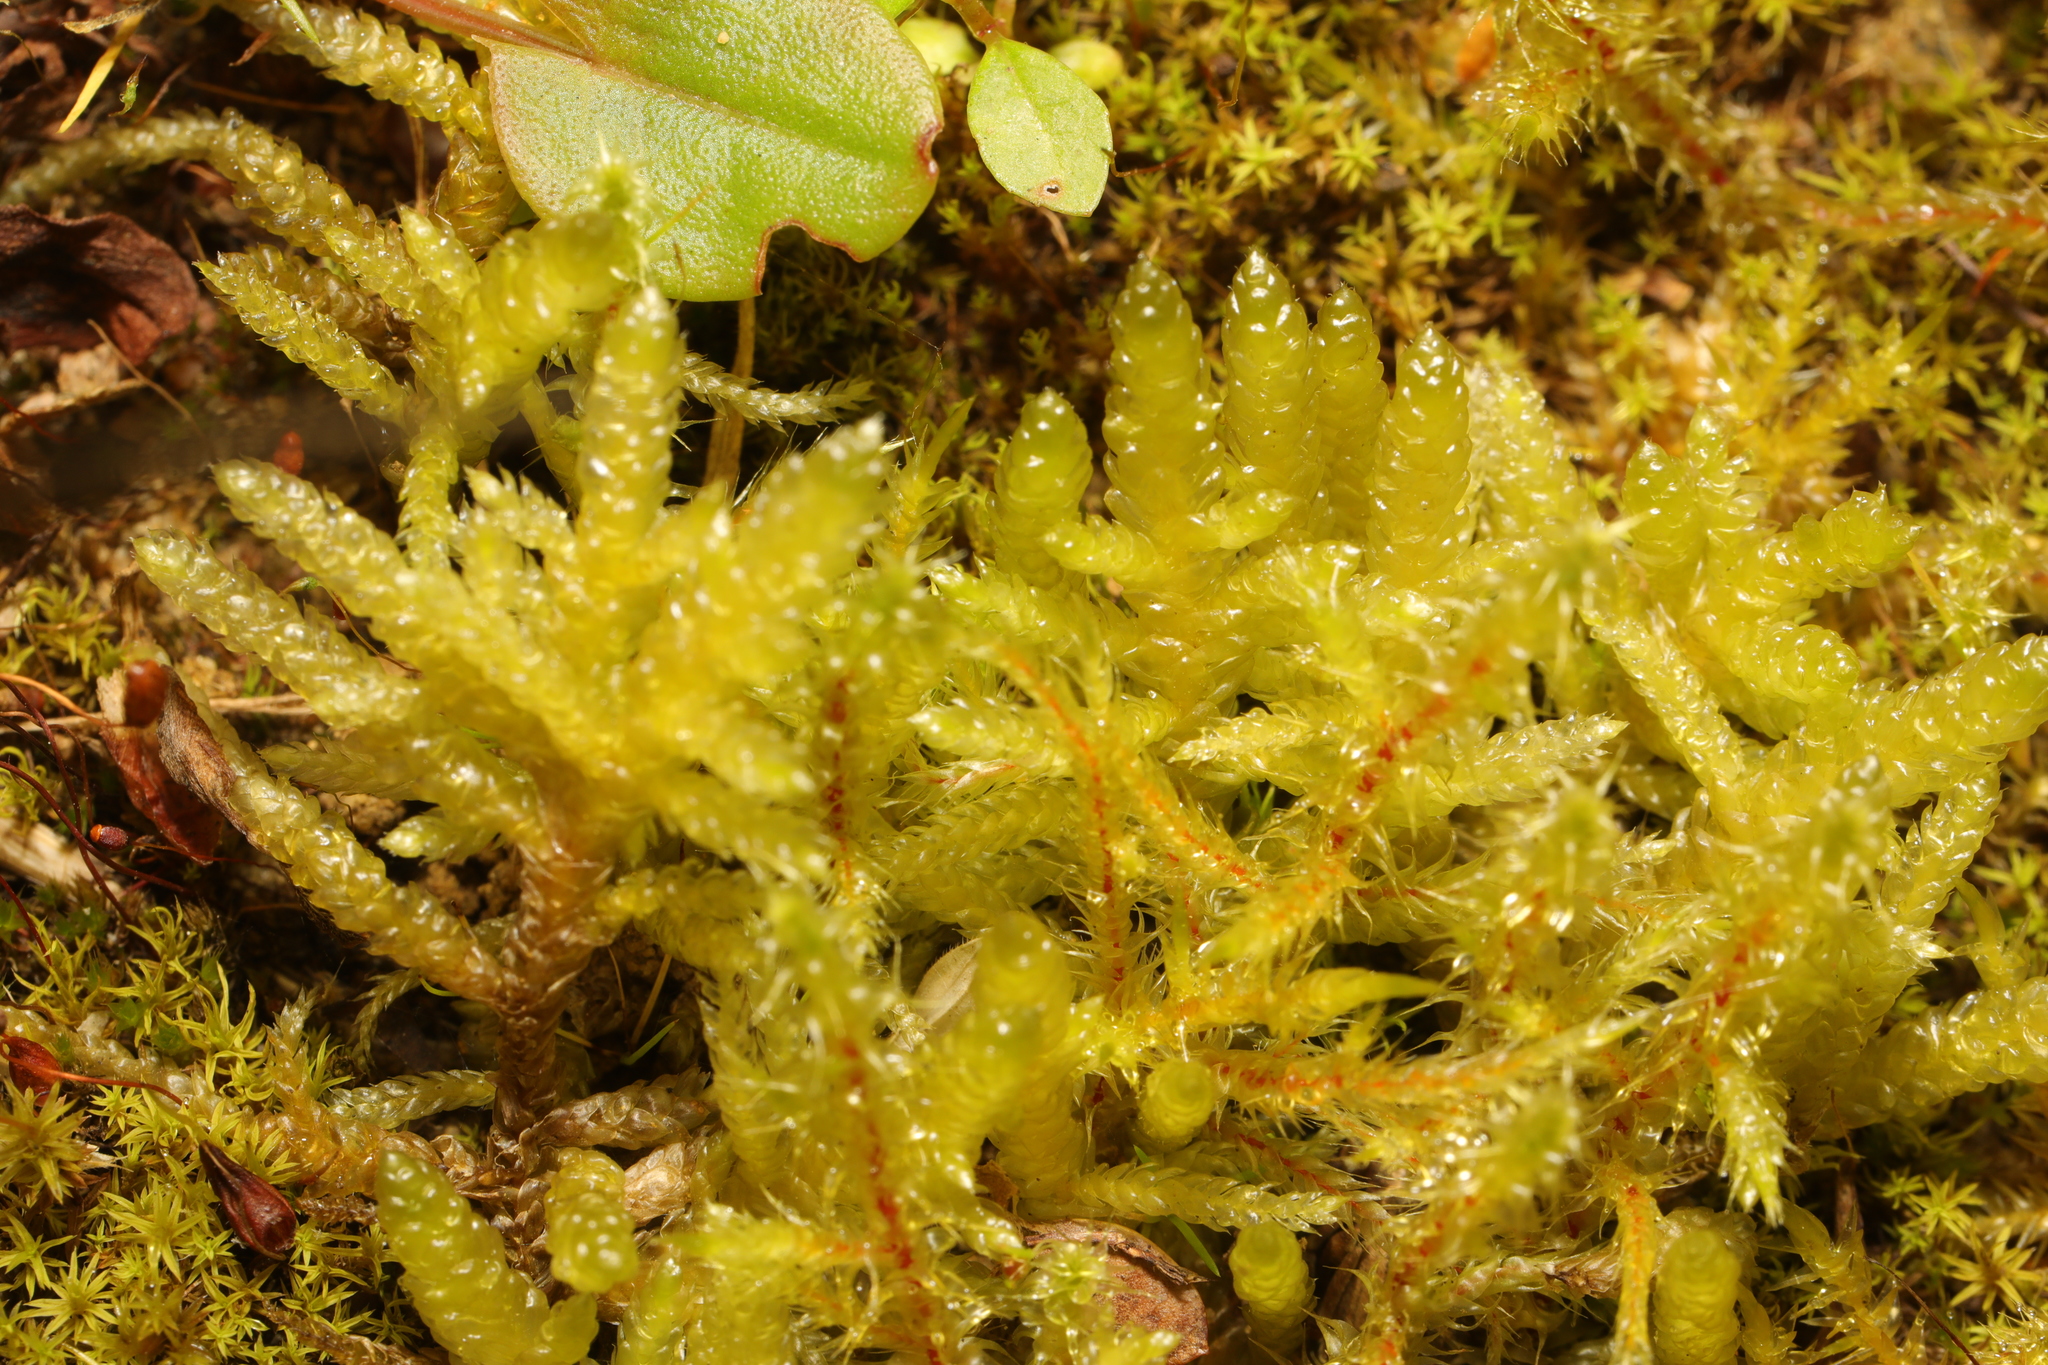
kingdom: Plantae
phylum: Bryophyta
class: Bryopsida
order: Hypnales
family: Brachytheciaceae
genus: Pseudoscleropodium
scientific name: Pseudoscleropodium purum
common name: Neat feather-moss
